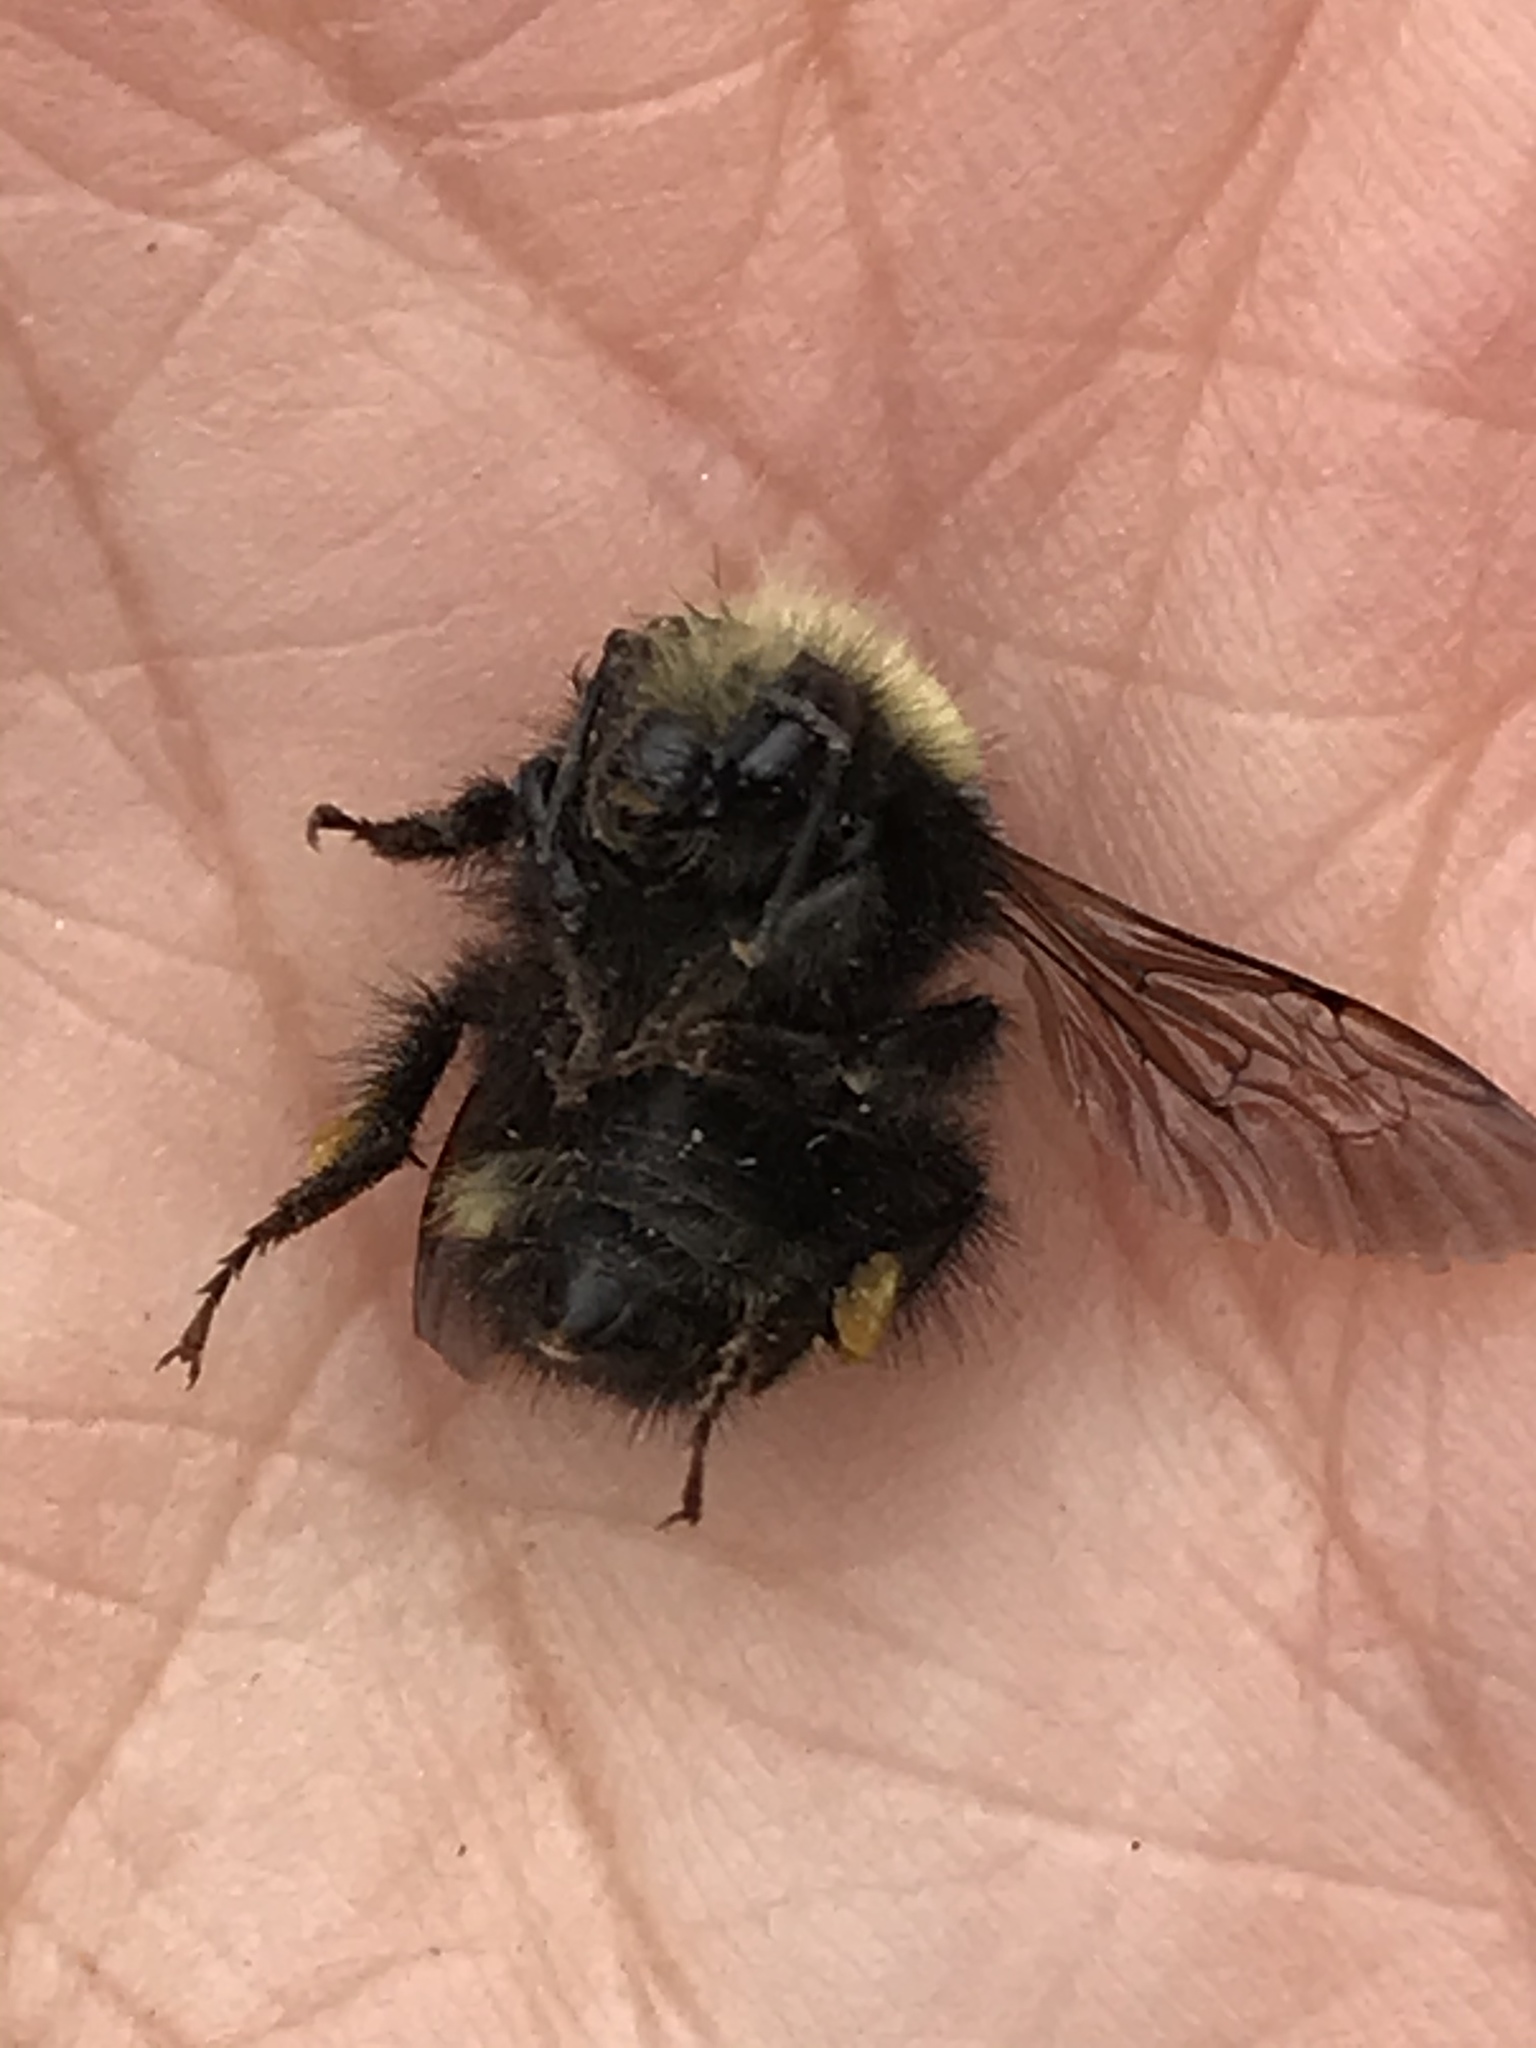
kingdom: Animalia
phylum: Arthropoda
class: Insecta
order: Hymenoptera
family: Apidae
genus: Bombus
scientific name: Bombus caliginosus
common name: Obscure bumble bee
